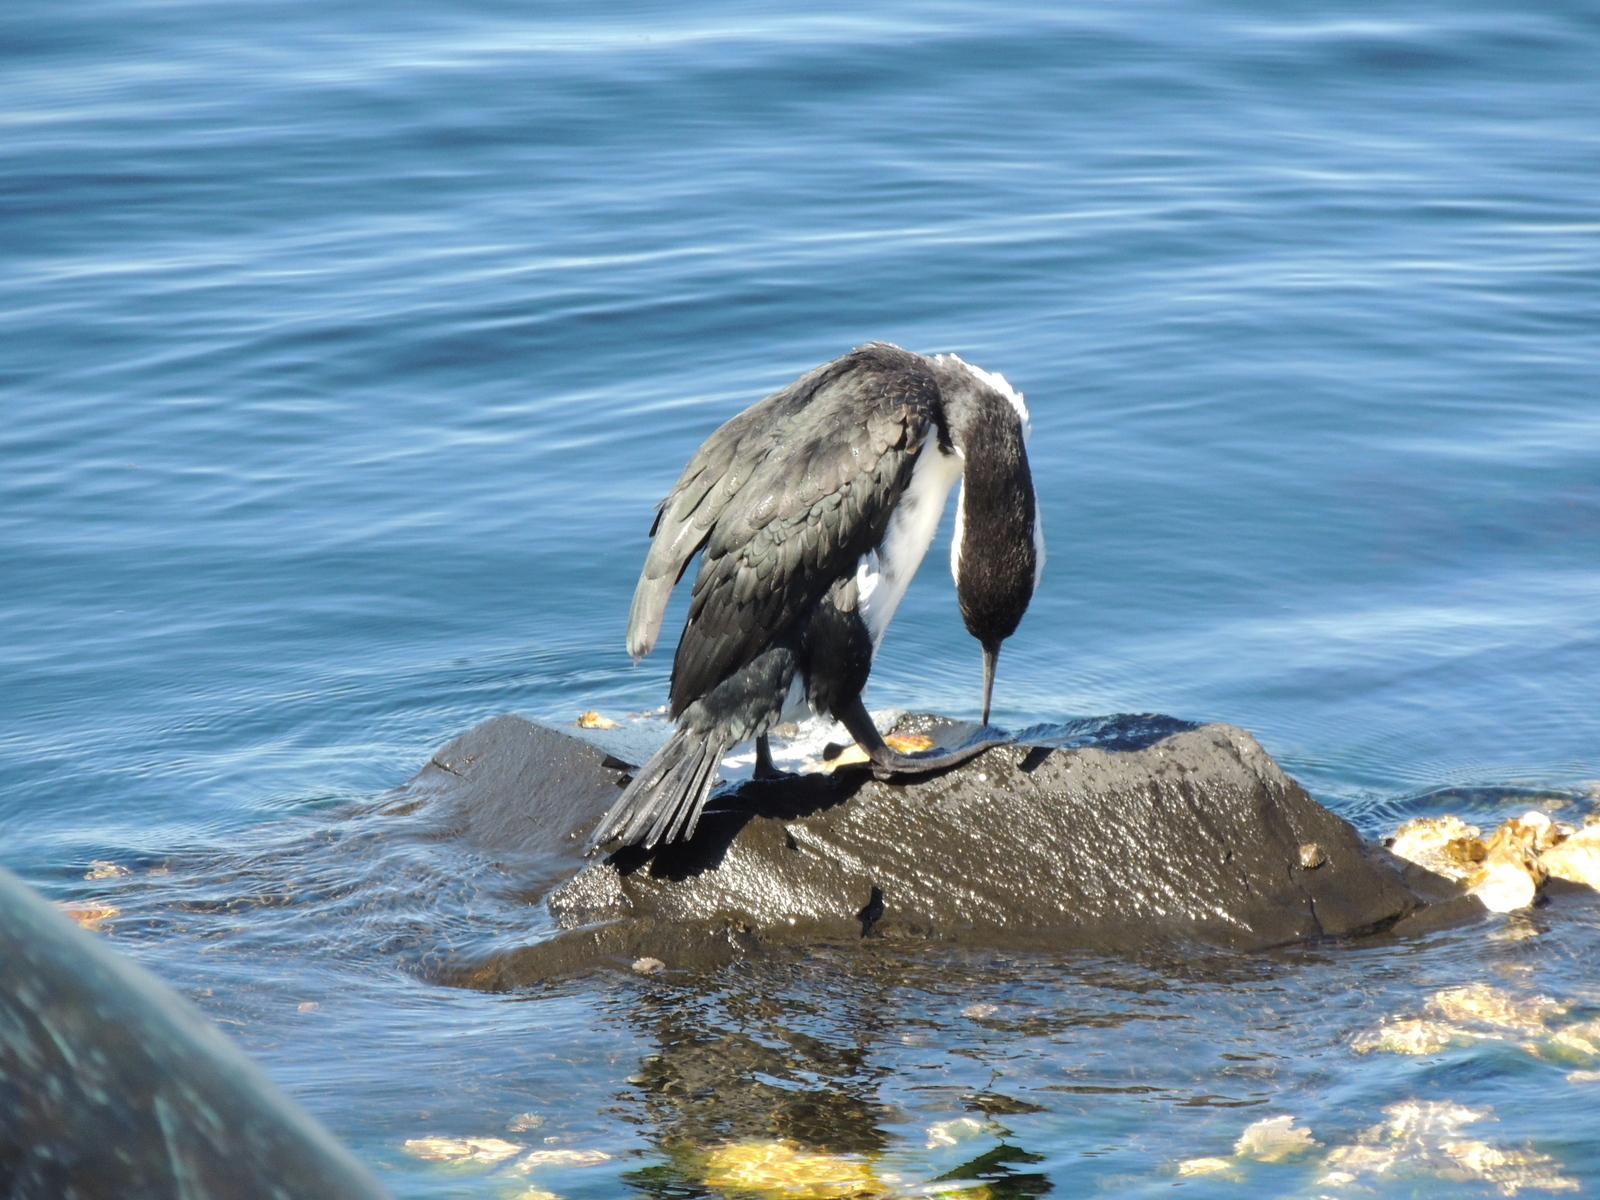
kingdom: Animalia
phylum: Chordata
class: Aves
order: Suliformes
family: Phalacrocoracidae
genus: Phalacrocorax
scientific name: Phalacrocorax fuscescens
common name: Black-faced cormorant
